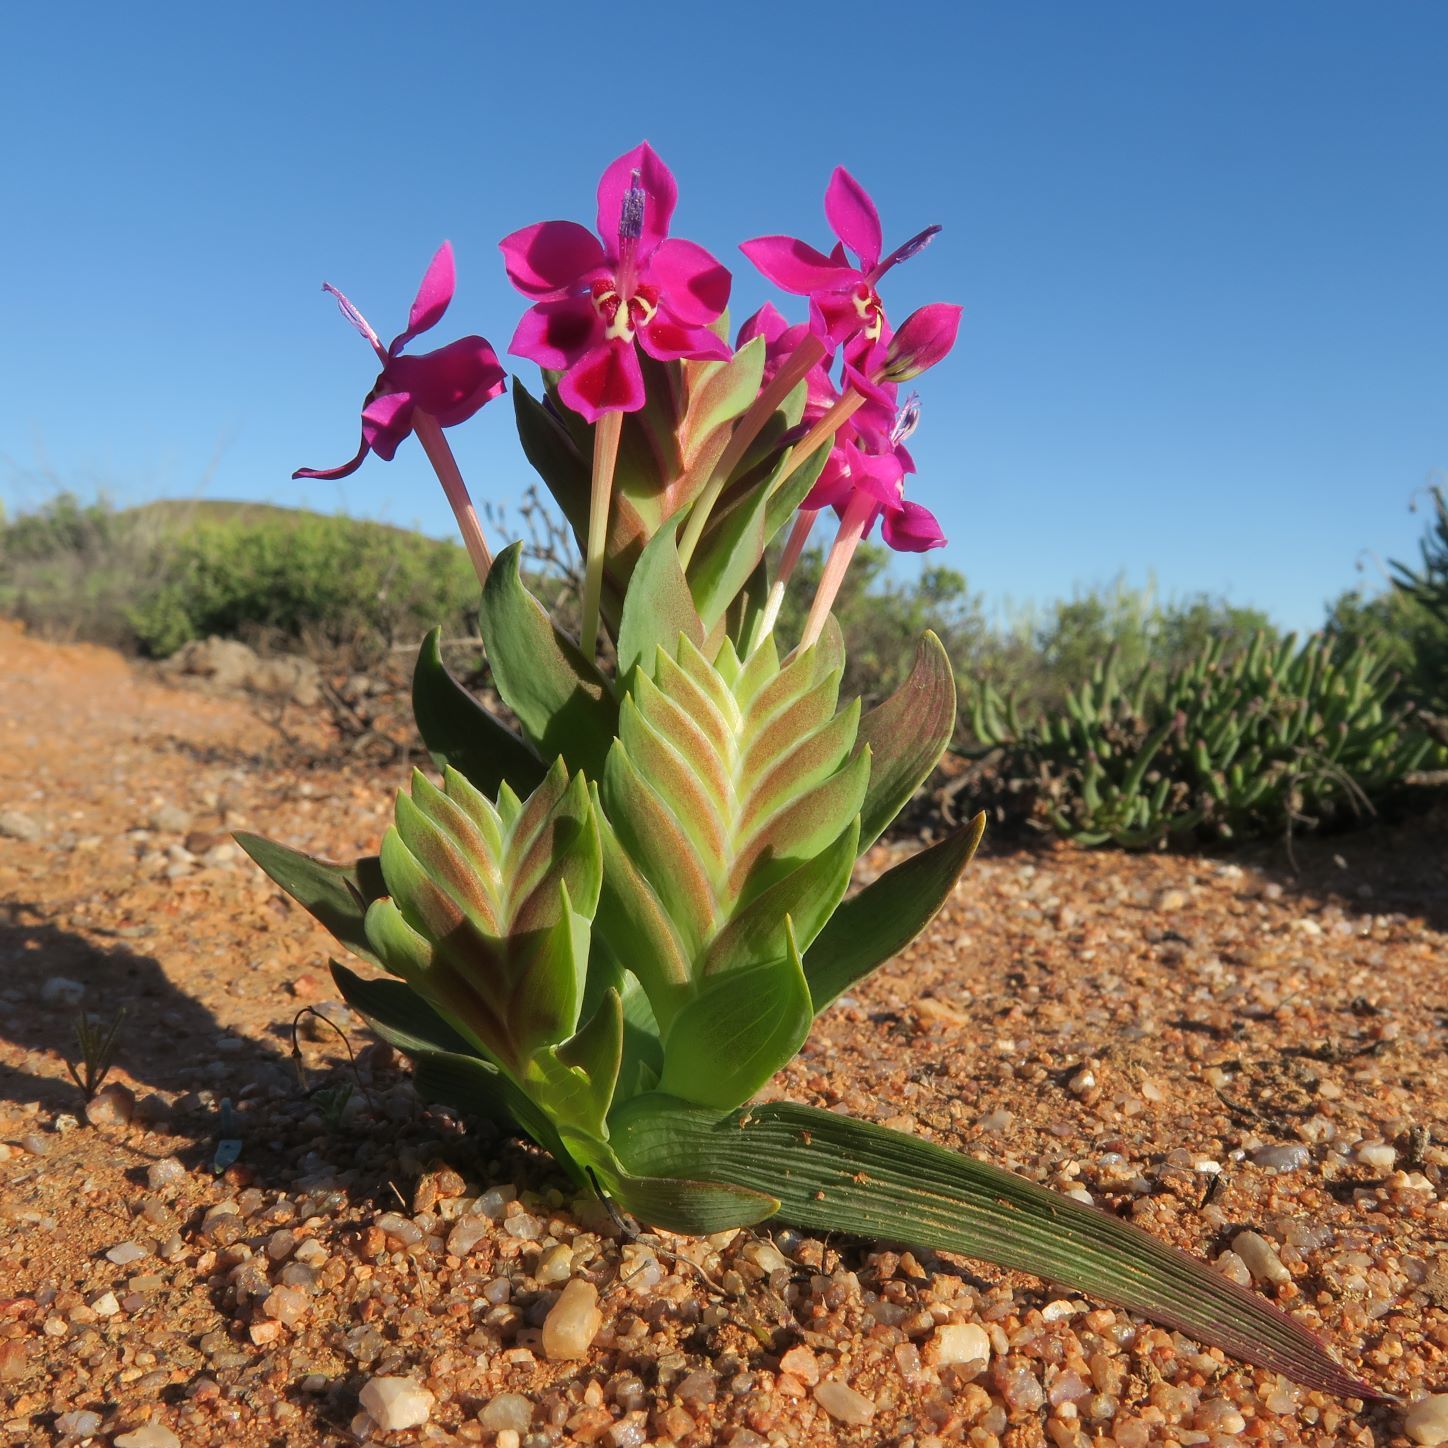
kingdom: Plantae
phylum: Tracheophyta
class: Liliopsida
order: Asparagales
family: Iridaceae
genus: Lapeirousia
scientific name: Lapeirousia silenoides
